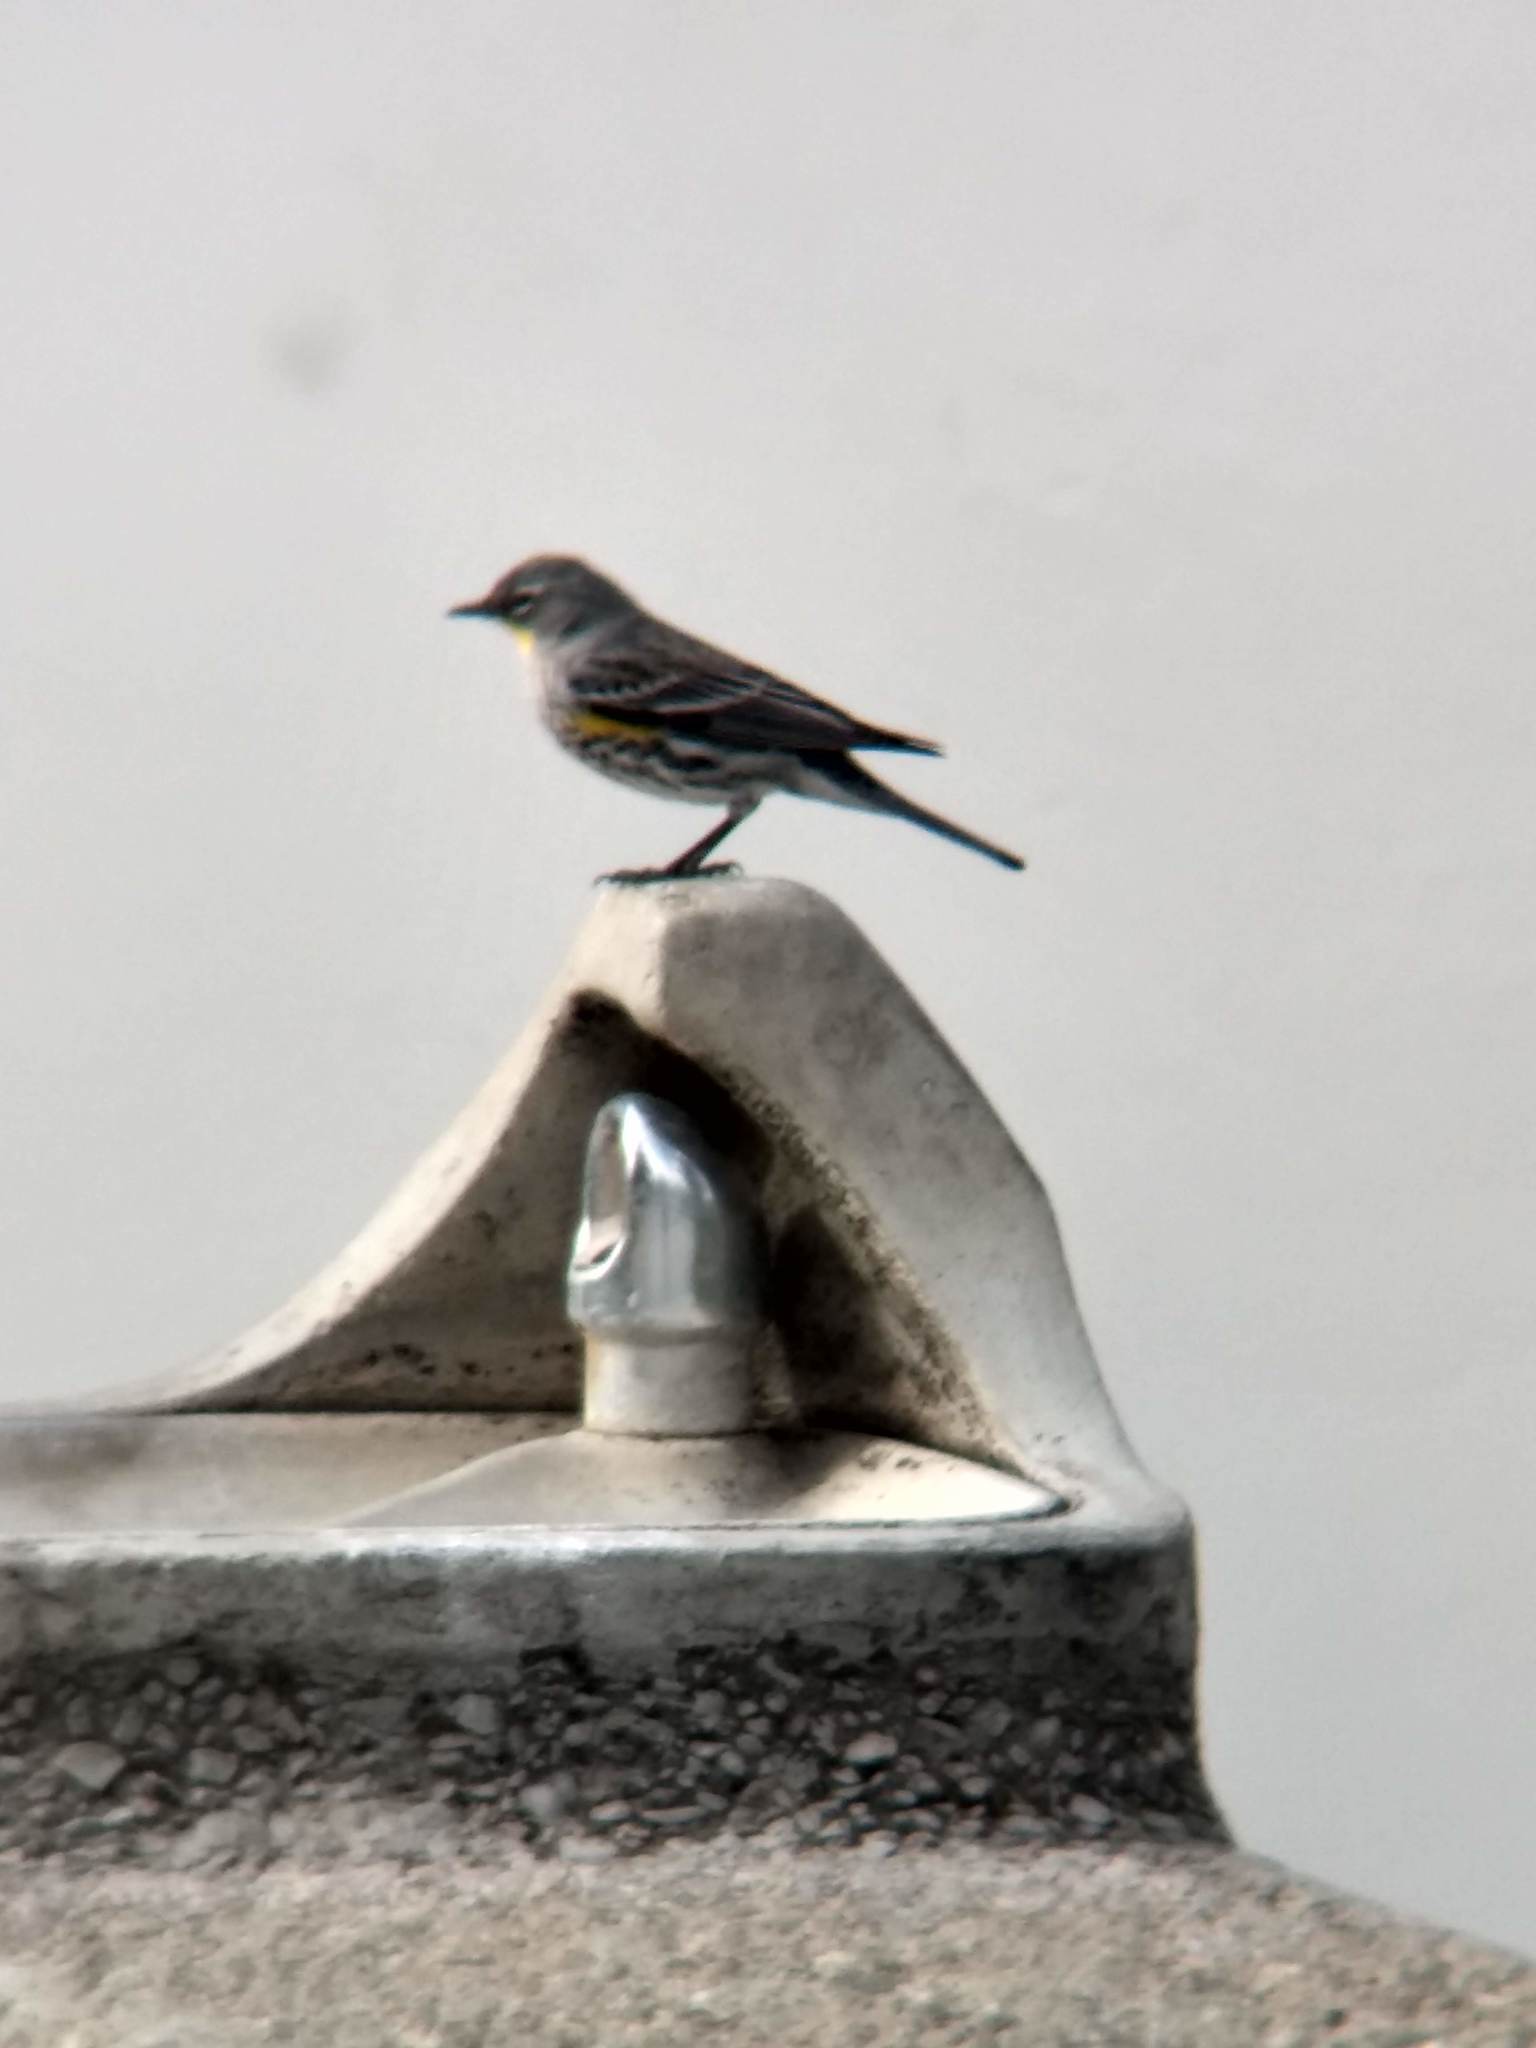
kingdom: Animalia
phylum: Chordata
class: Aves
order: Passeriformes
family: Parulidae
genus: Setophaga
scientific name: Setophaga coronata
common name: Myrtle warbler
